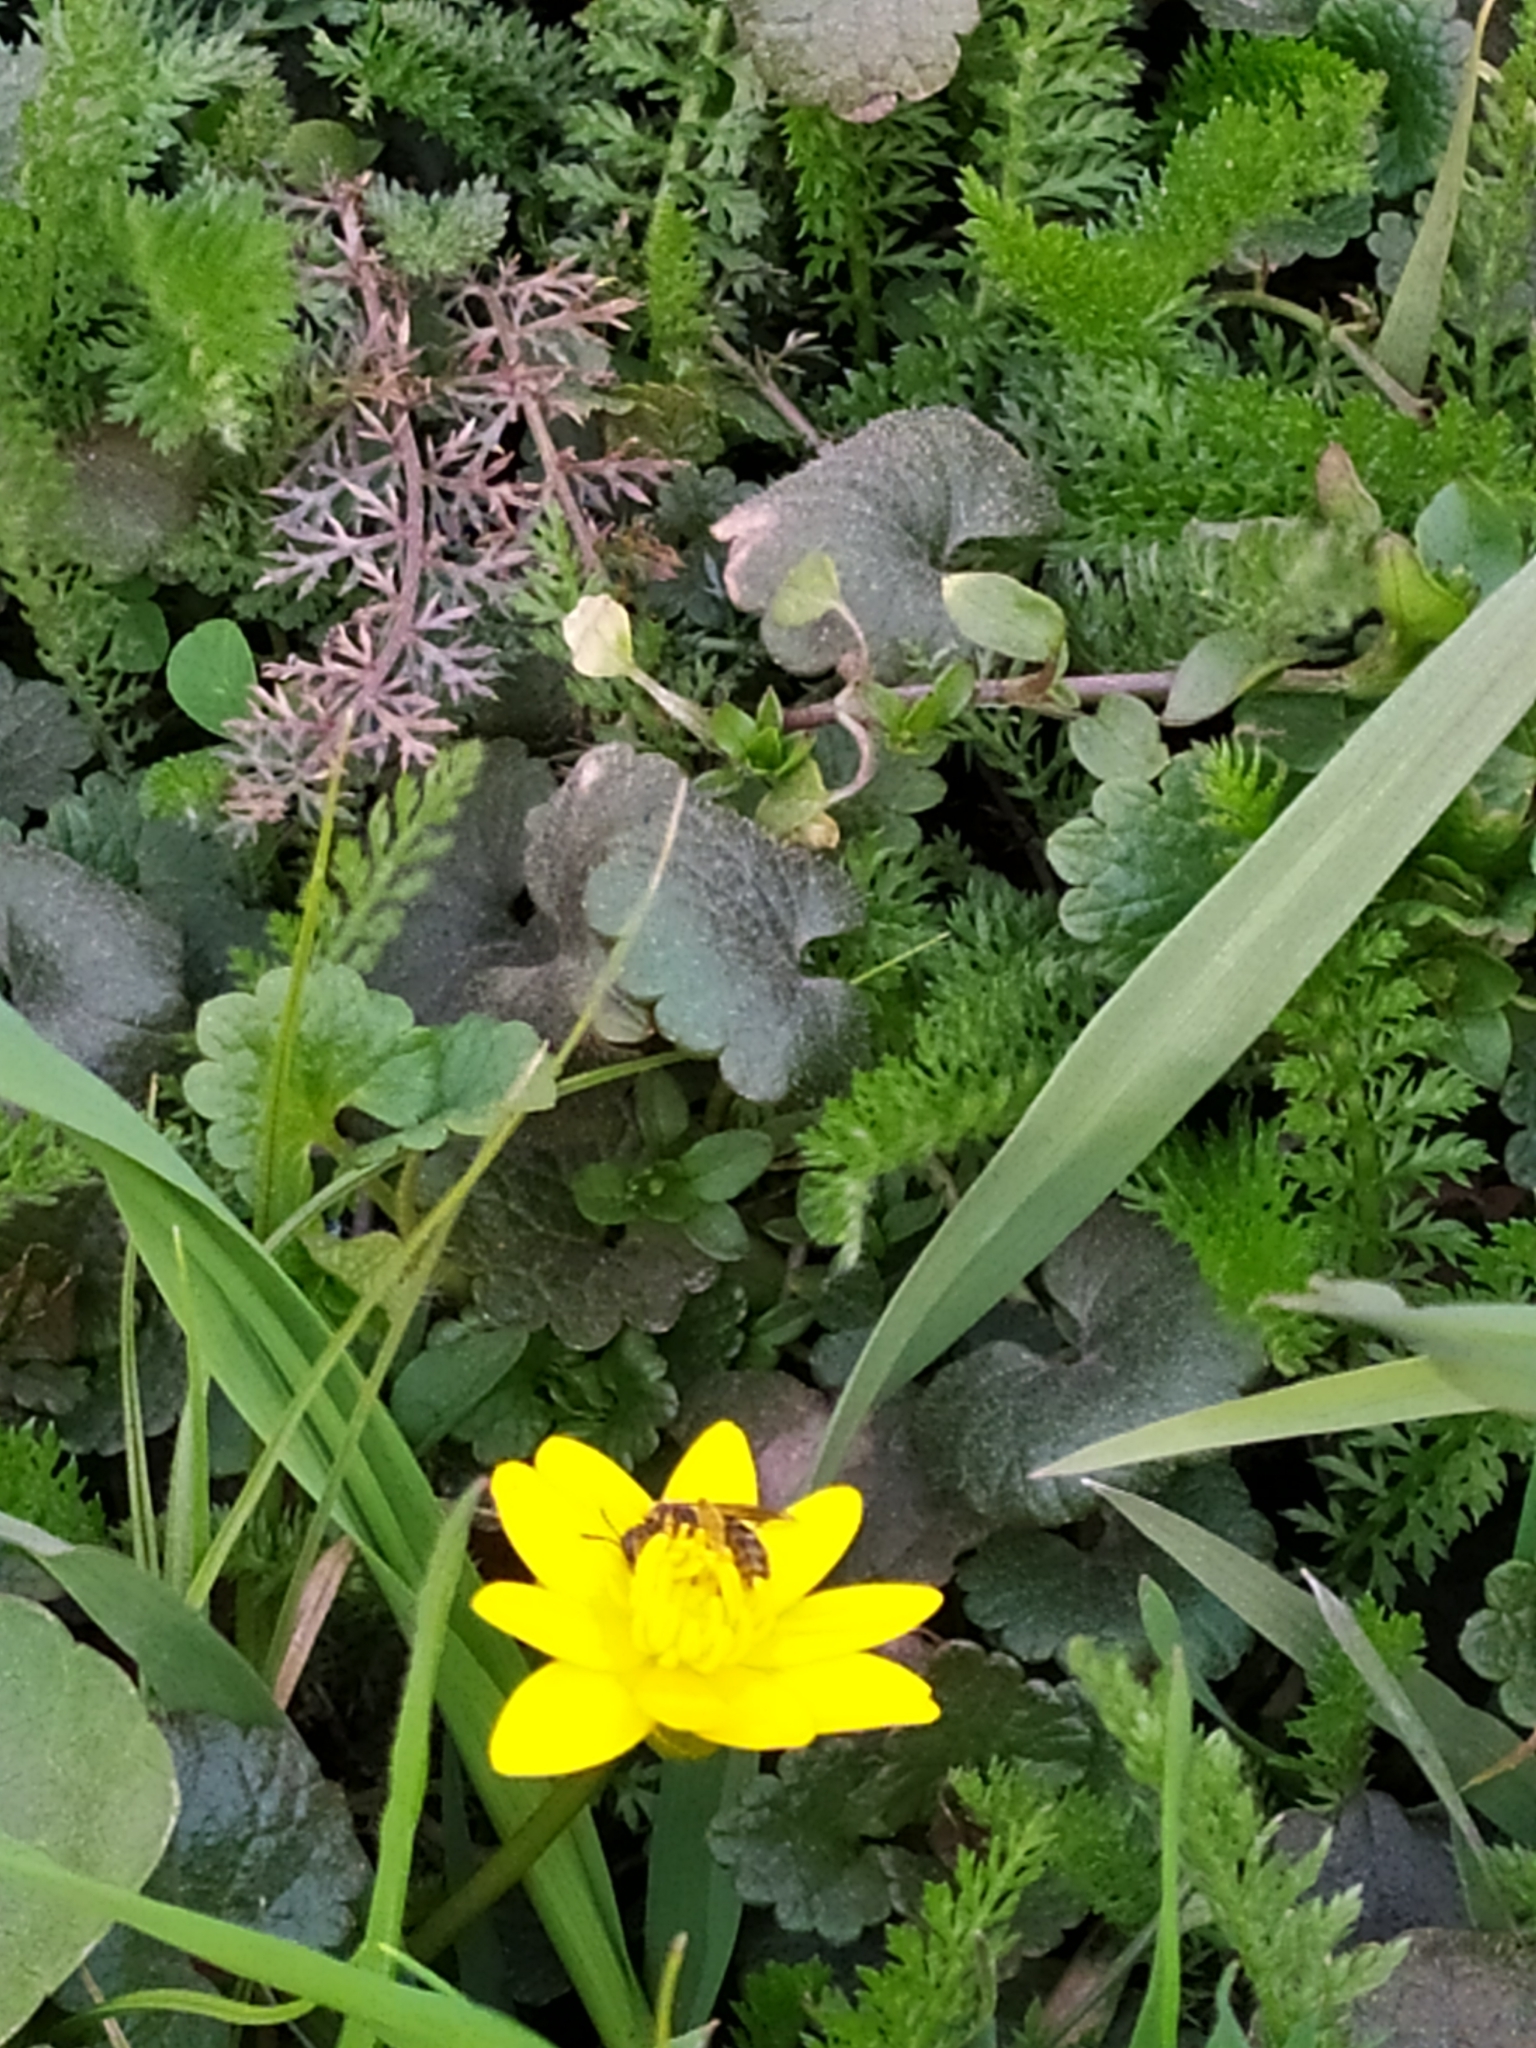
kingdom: Plantae
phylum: Tracheophyta
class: Magnoliopsida
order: Ranunculales
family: Ranunculaceae
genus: Ficaria
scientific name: Ficaria verna
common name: Lesser celandine
